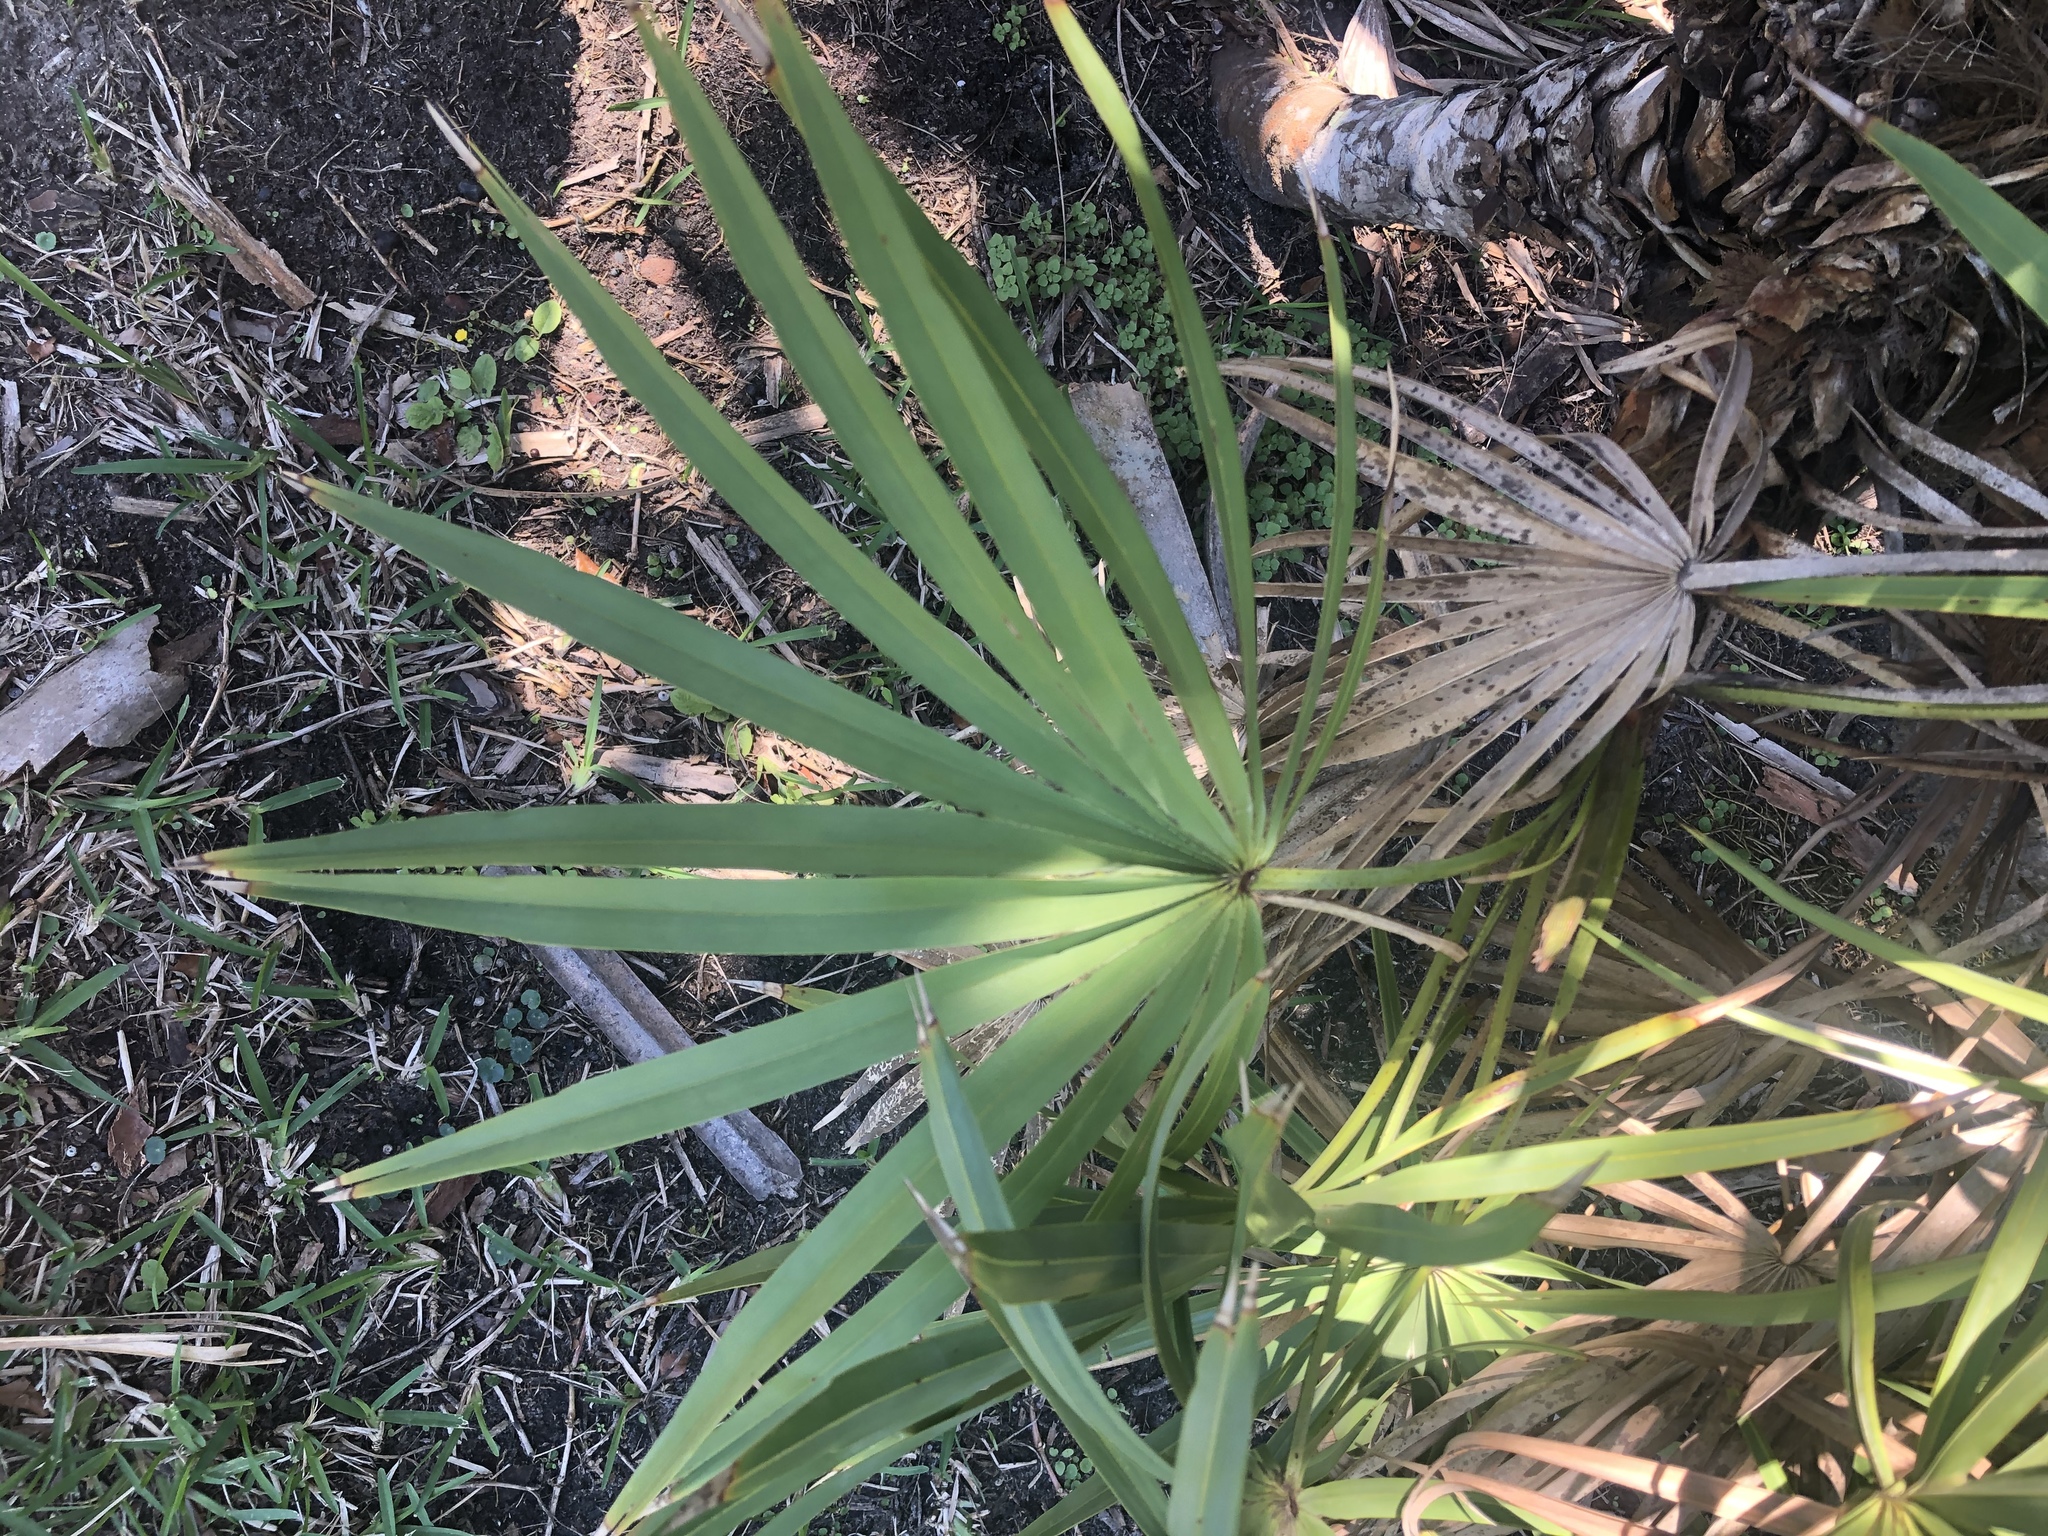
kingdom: Plantae
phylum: Tracheophyta
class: Liliopsida
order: Arecales
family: Arecaceae
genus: Serenoa
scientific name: Serenoa repens
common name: Saw-palmetto
